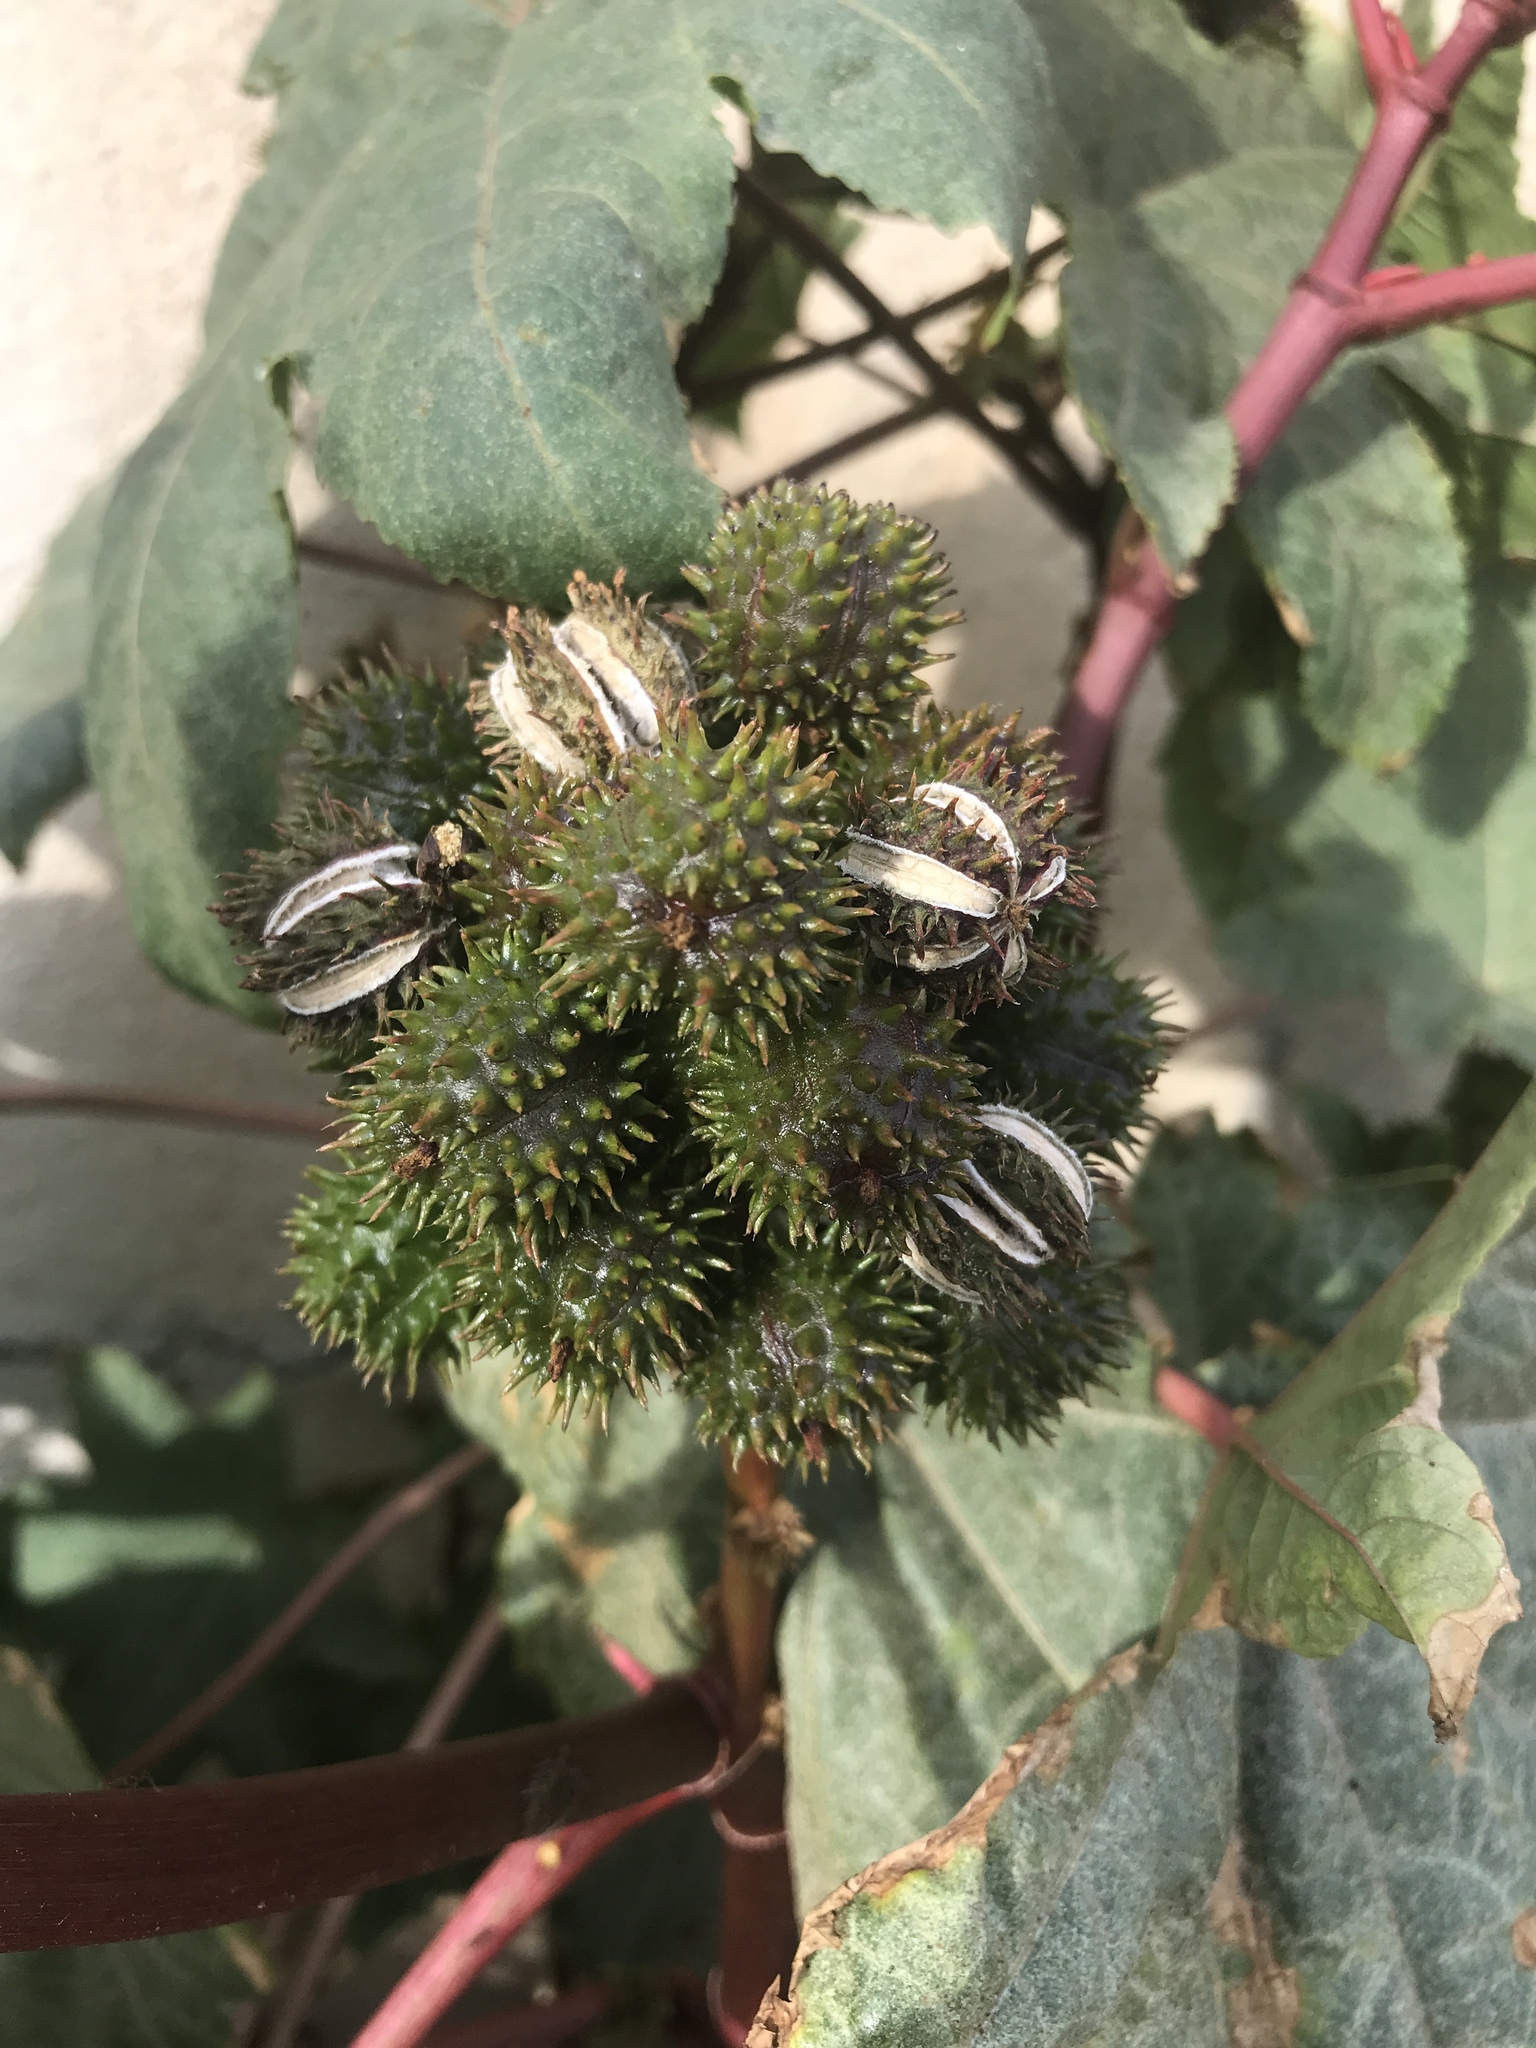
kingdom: Plantae
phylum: Tracheophyta
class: Magnoliopsida
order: Malpighiales
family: Euphorbiaceae
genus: Ricinus
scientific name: Ricinus communis
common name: Castor-oil-plant
